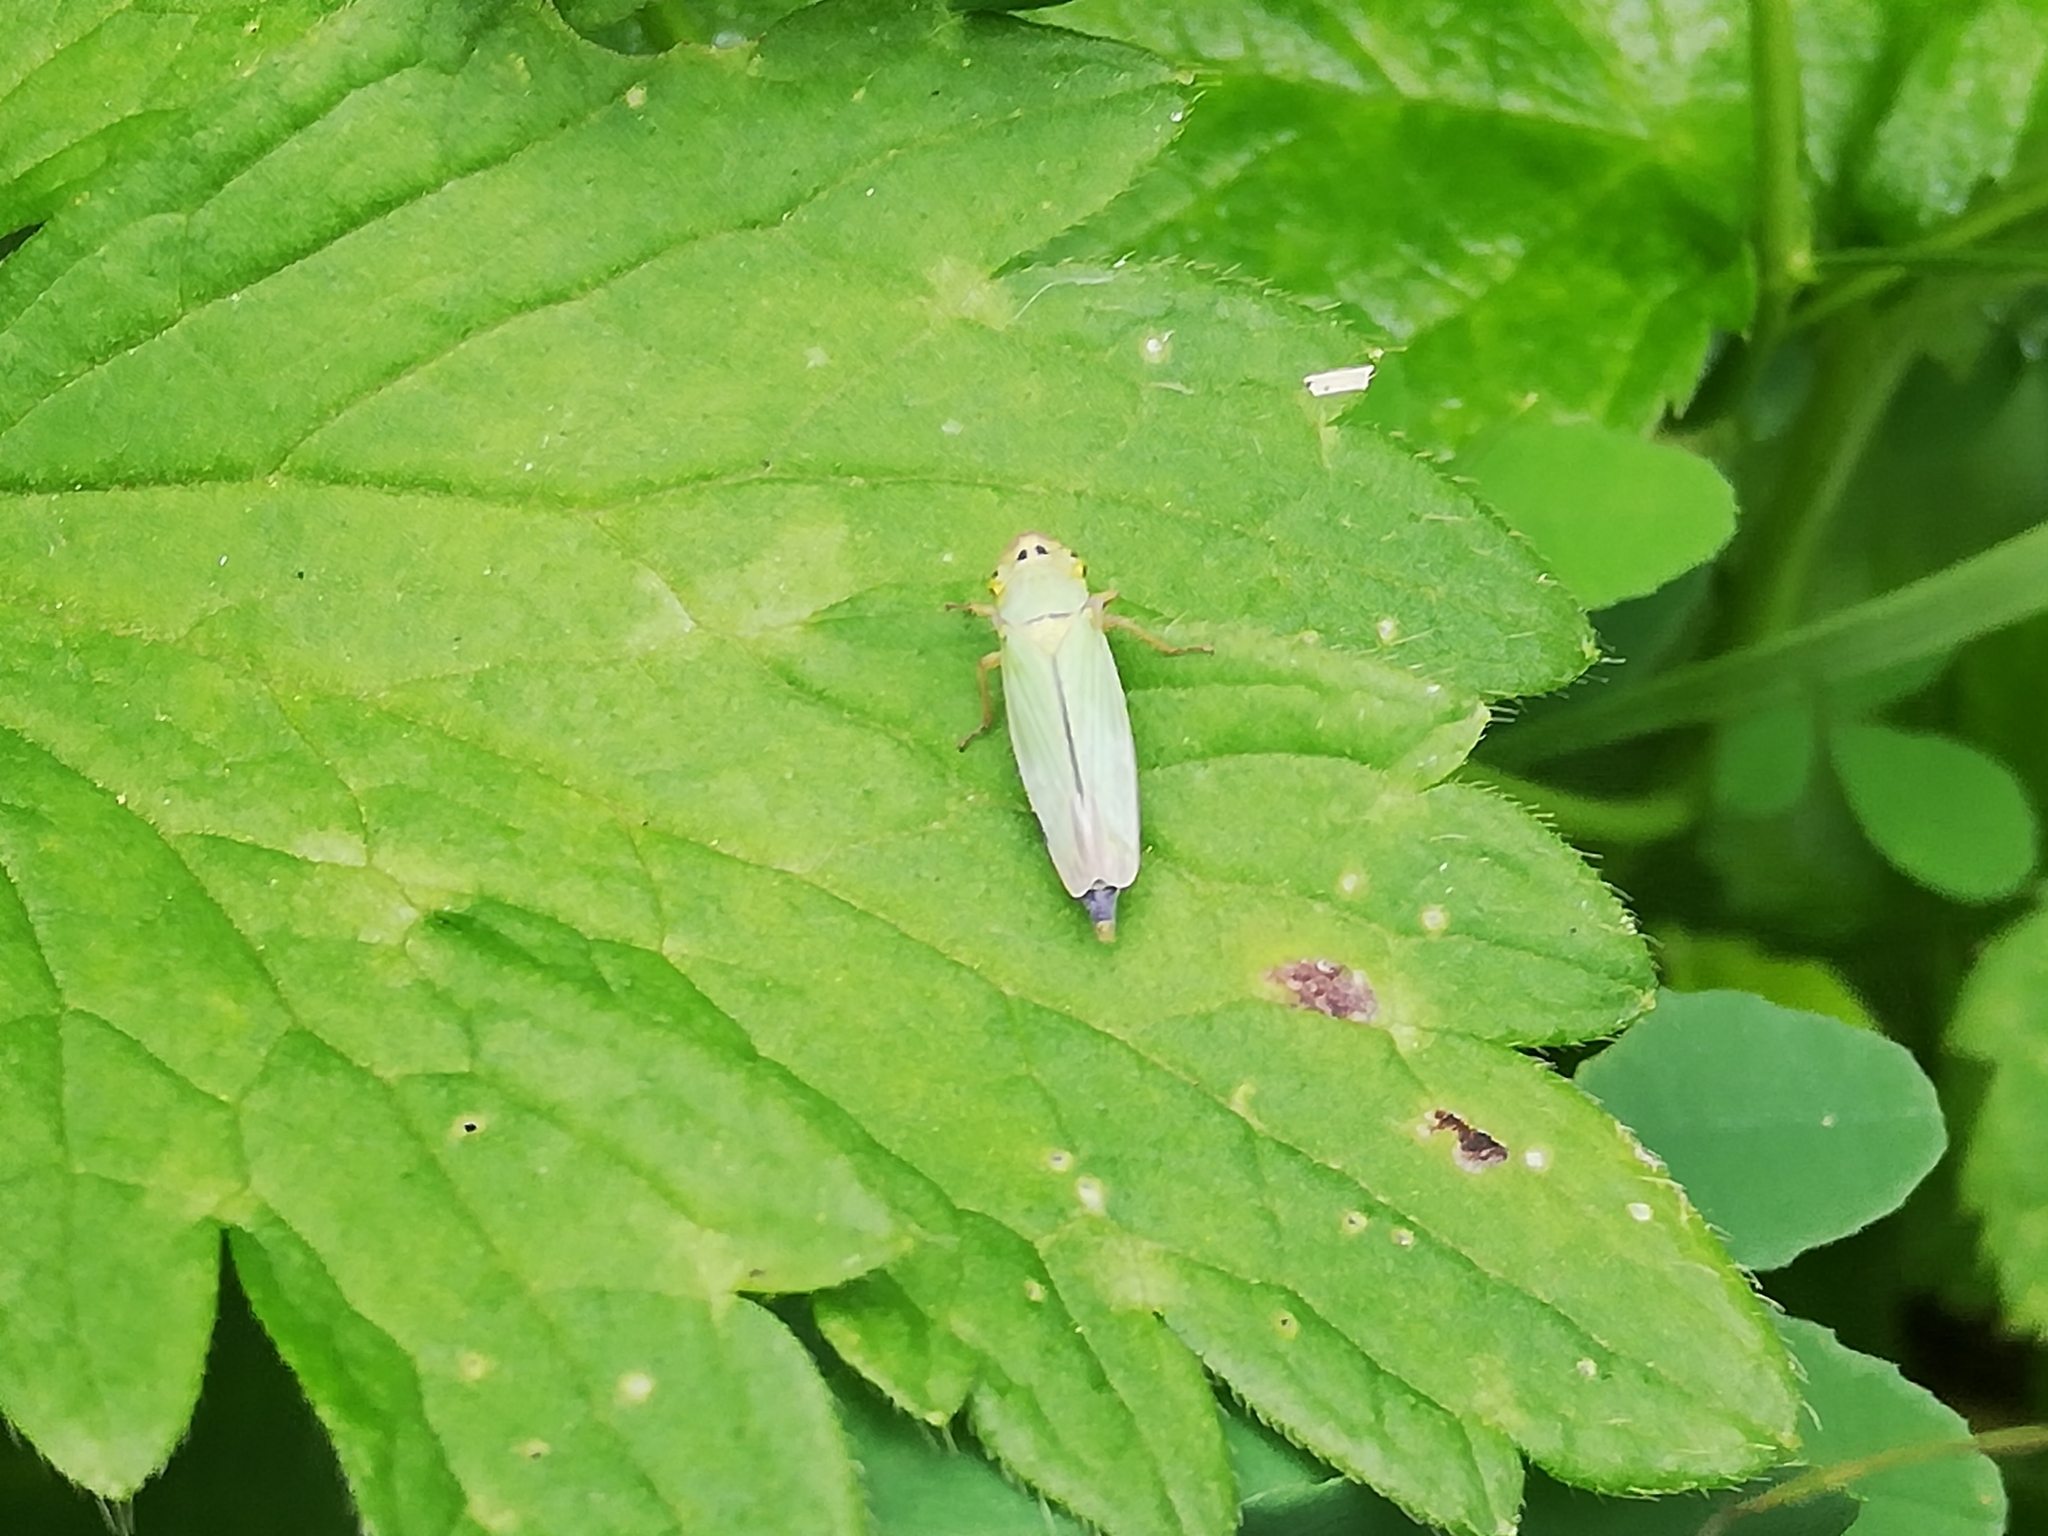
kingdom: Animalia
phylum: Arthropoda
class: Insecta
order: Hemiptera
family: Cicadellidae
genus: Cicadella
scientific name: Cicadella viridis
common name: Leafhopper
